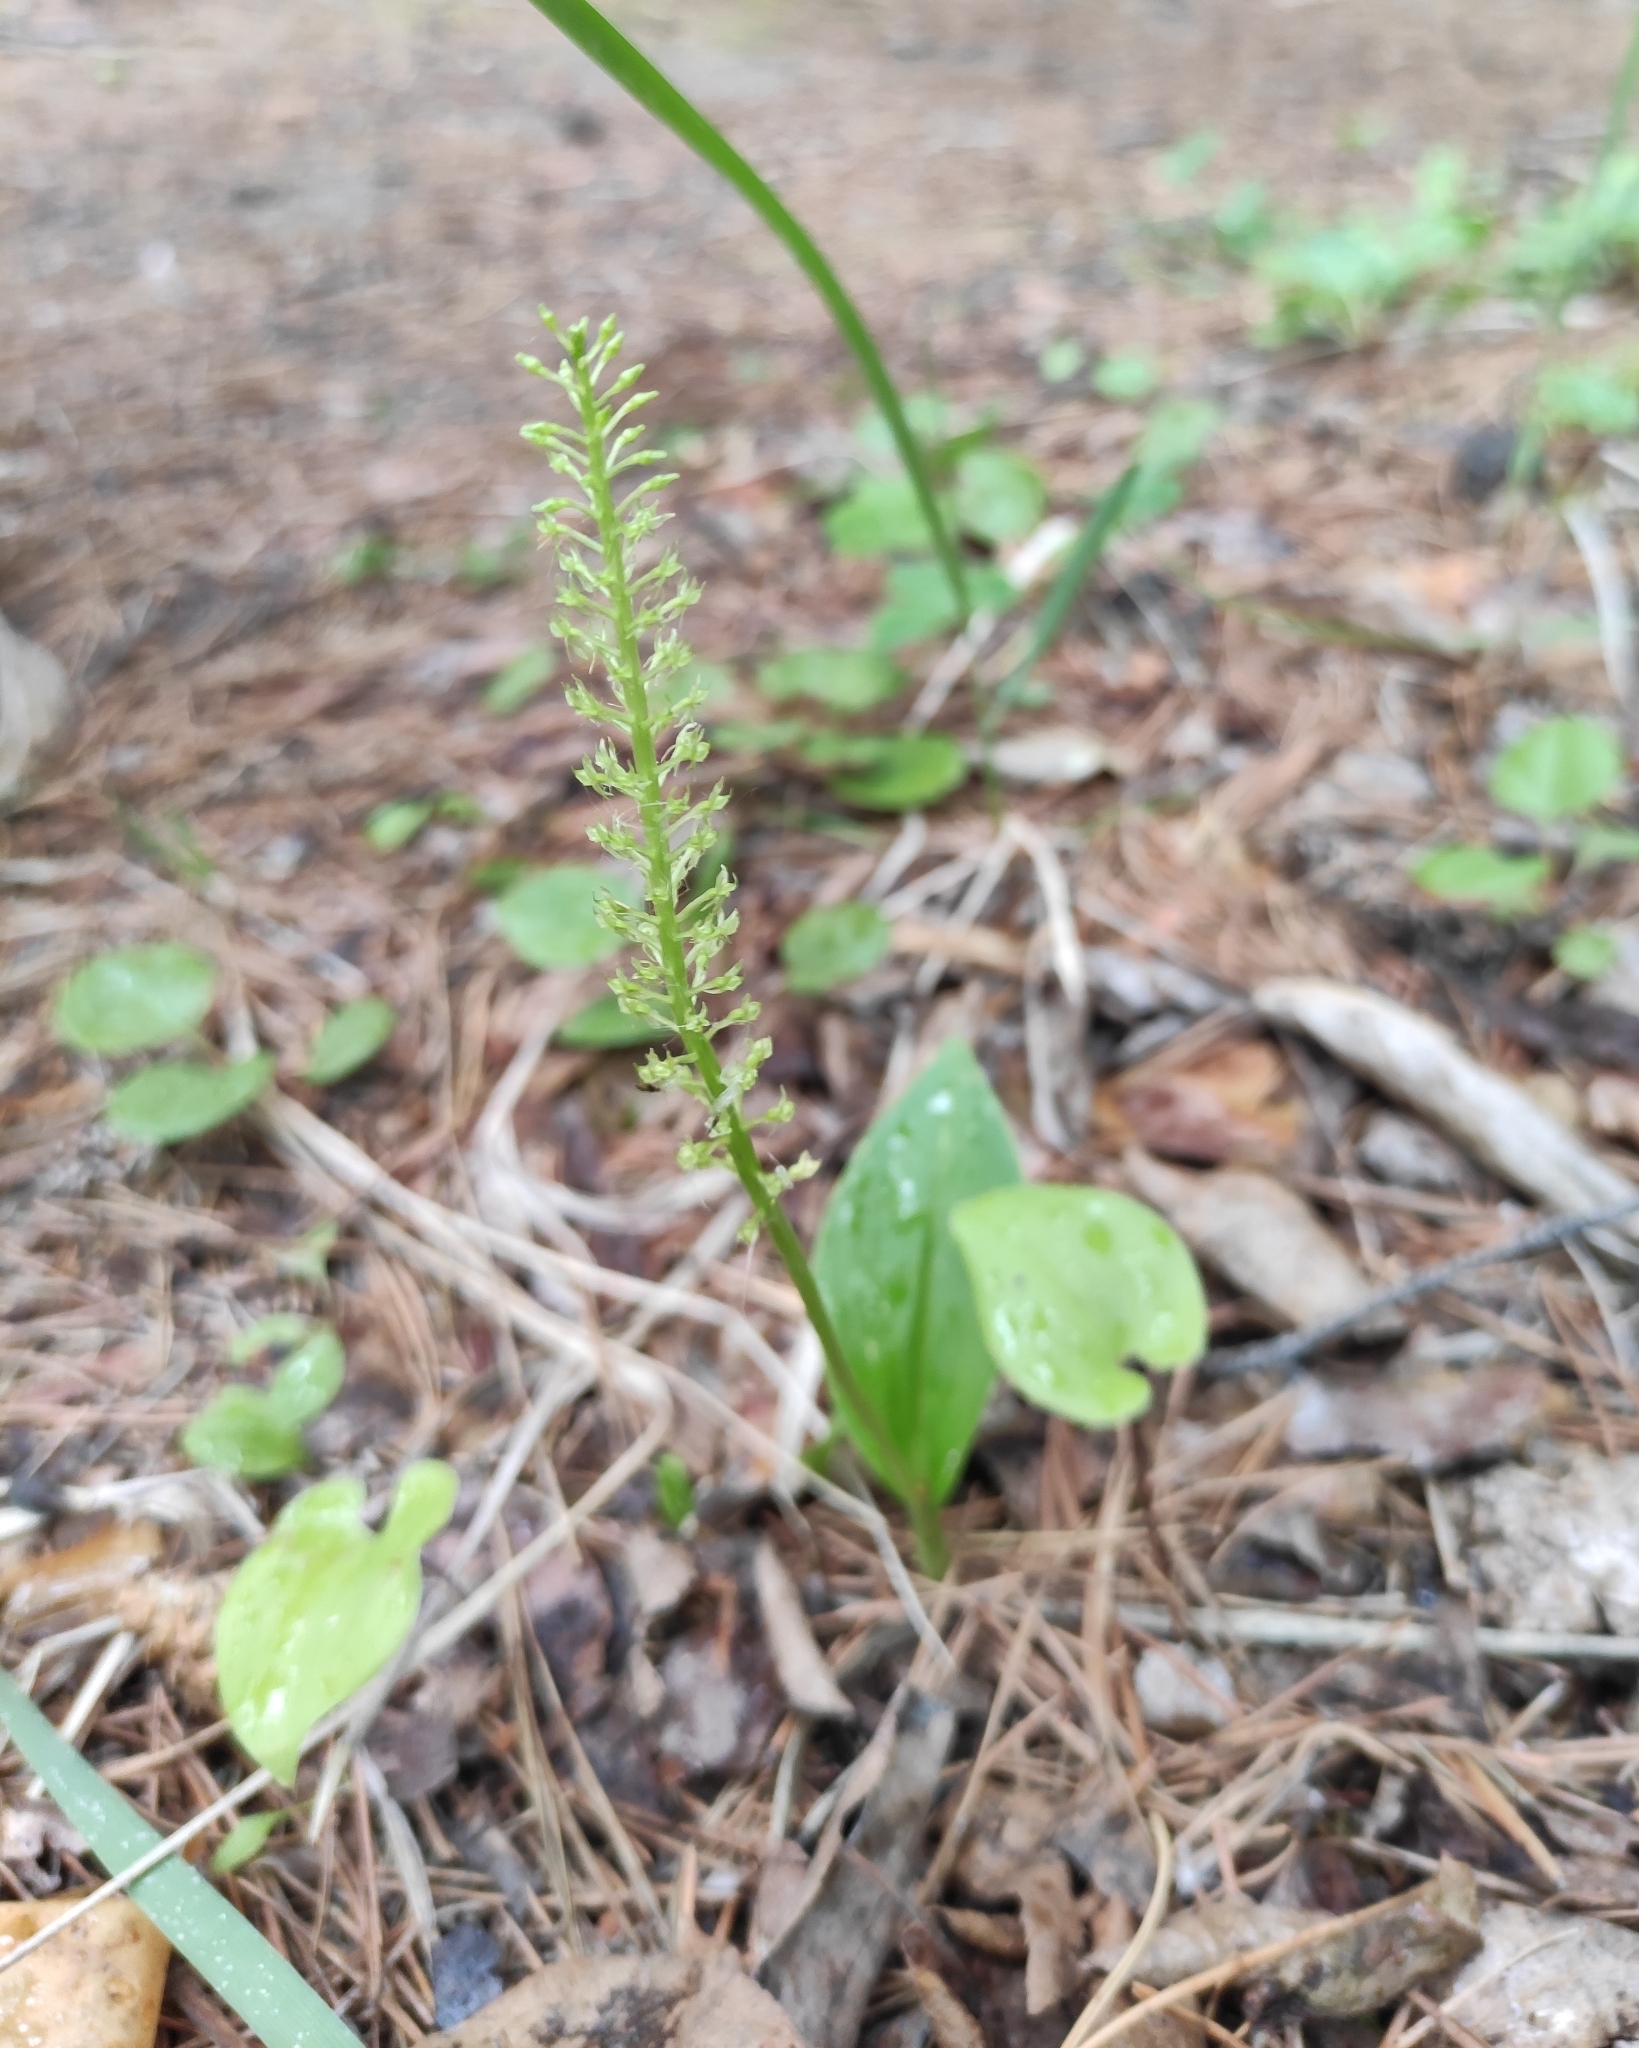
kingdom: Plantae
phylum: Tracheophyta
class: Liliopsida
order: Asparagales
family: Orchidaceae
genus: Malaxis
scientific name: Malaxis monophyllos
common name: White adder's-mouth
